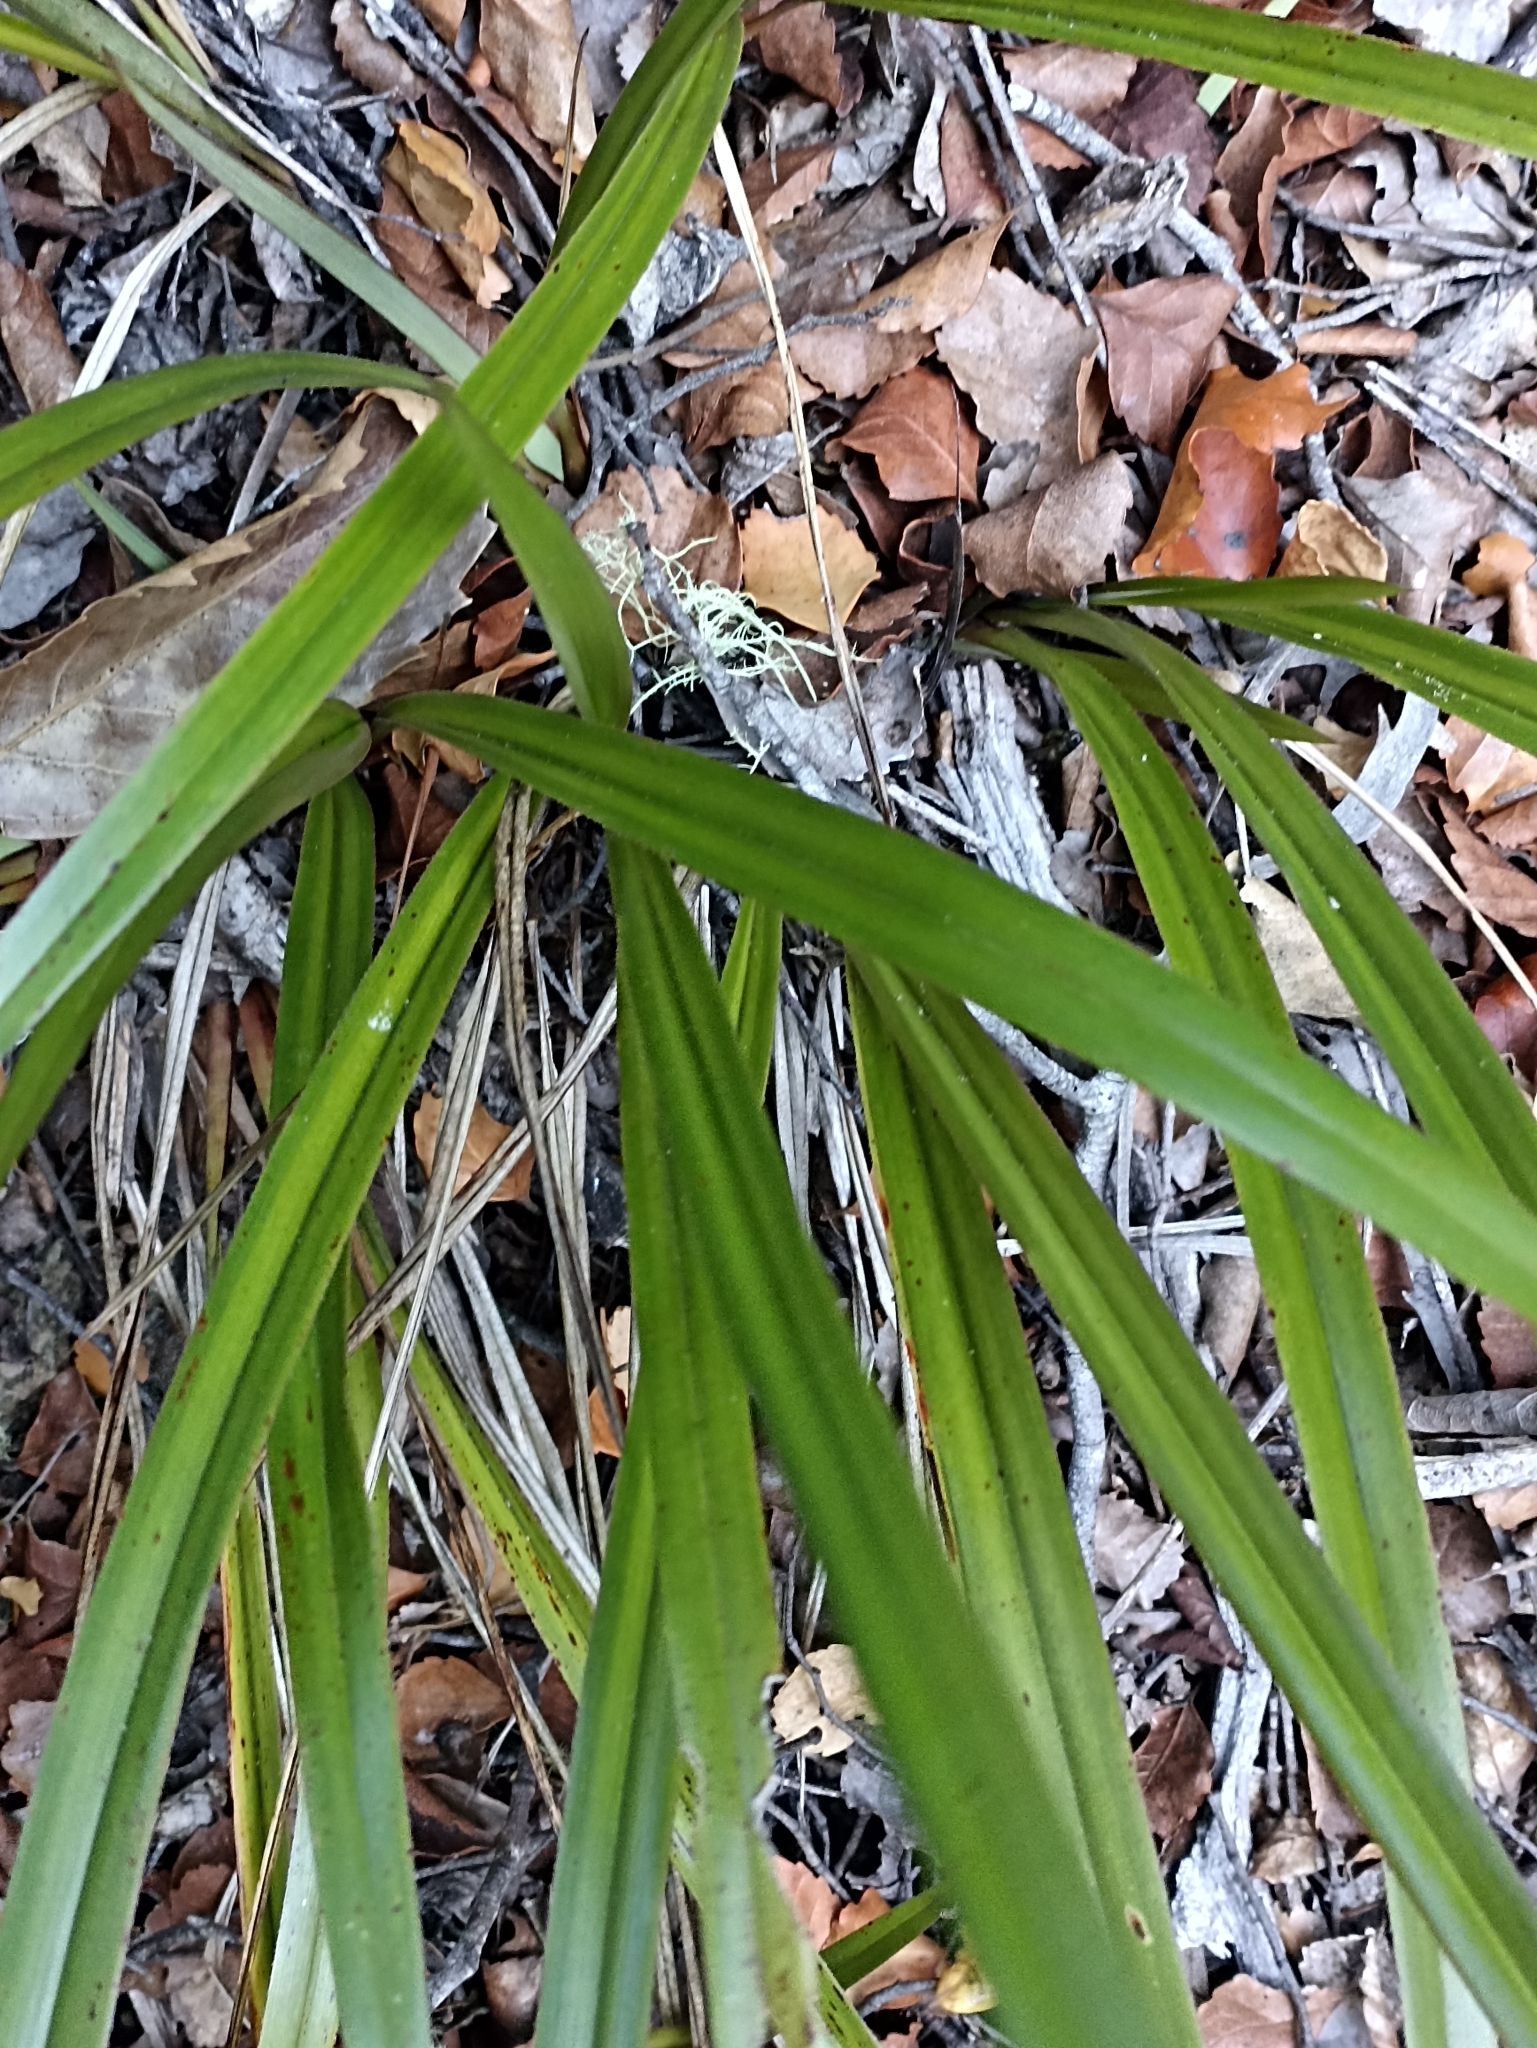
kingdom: Plantae
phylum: Tracheophyta
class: Liliopsida
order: Asparagales
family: Asphodelaceae
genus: Dianella
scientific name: Dianella nigra
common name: New zealand-blueberry
